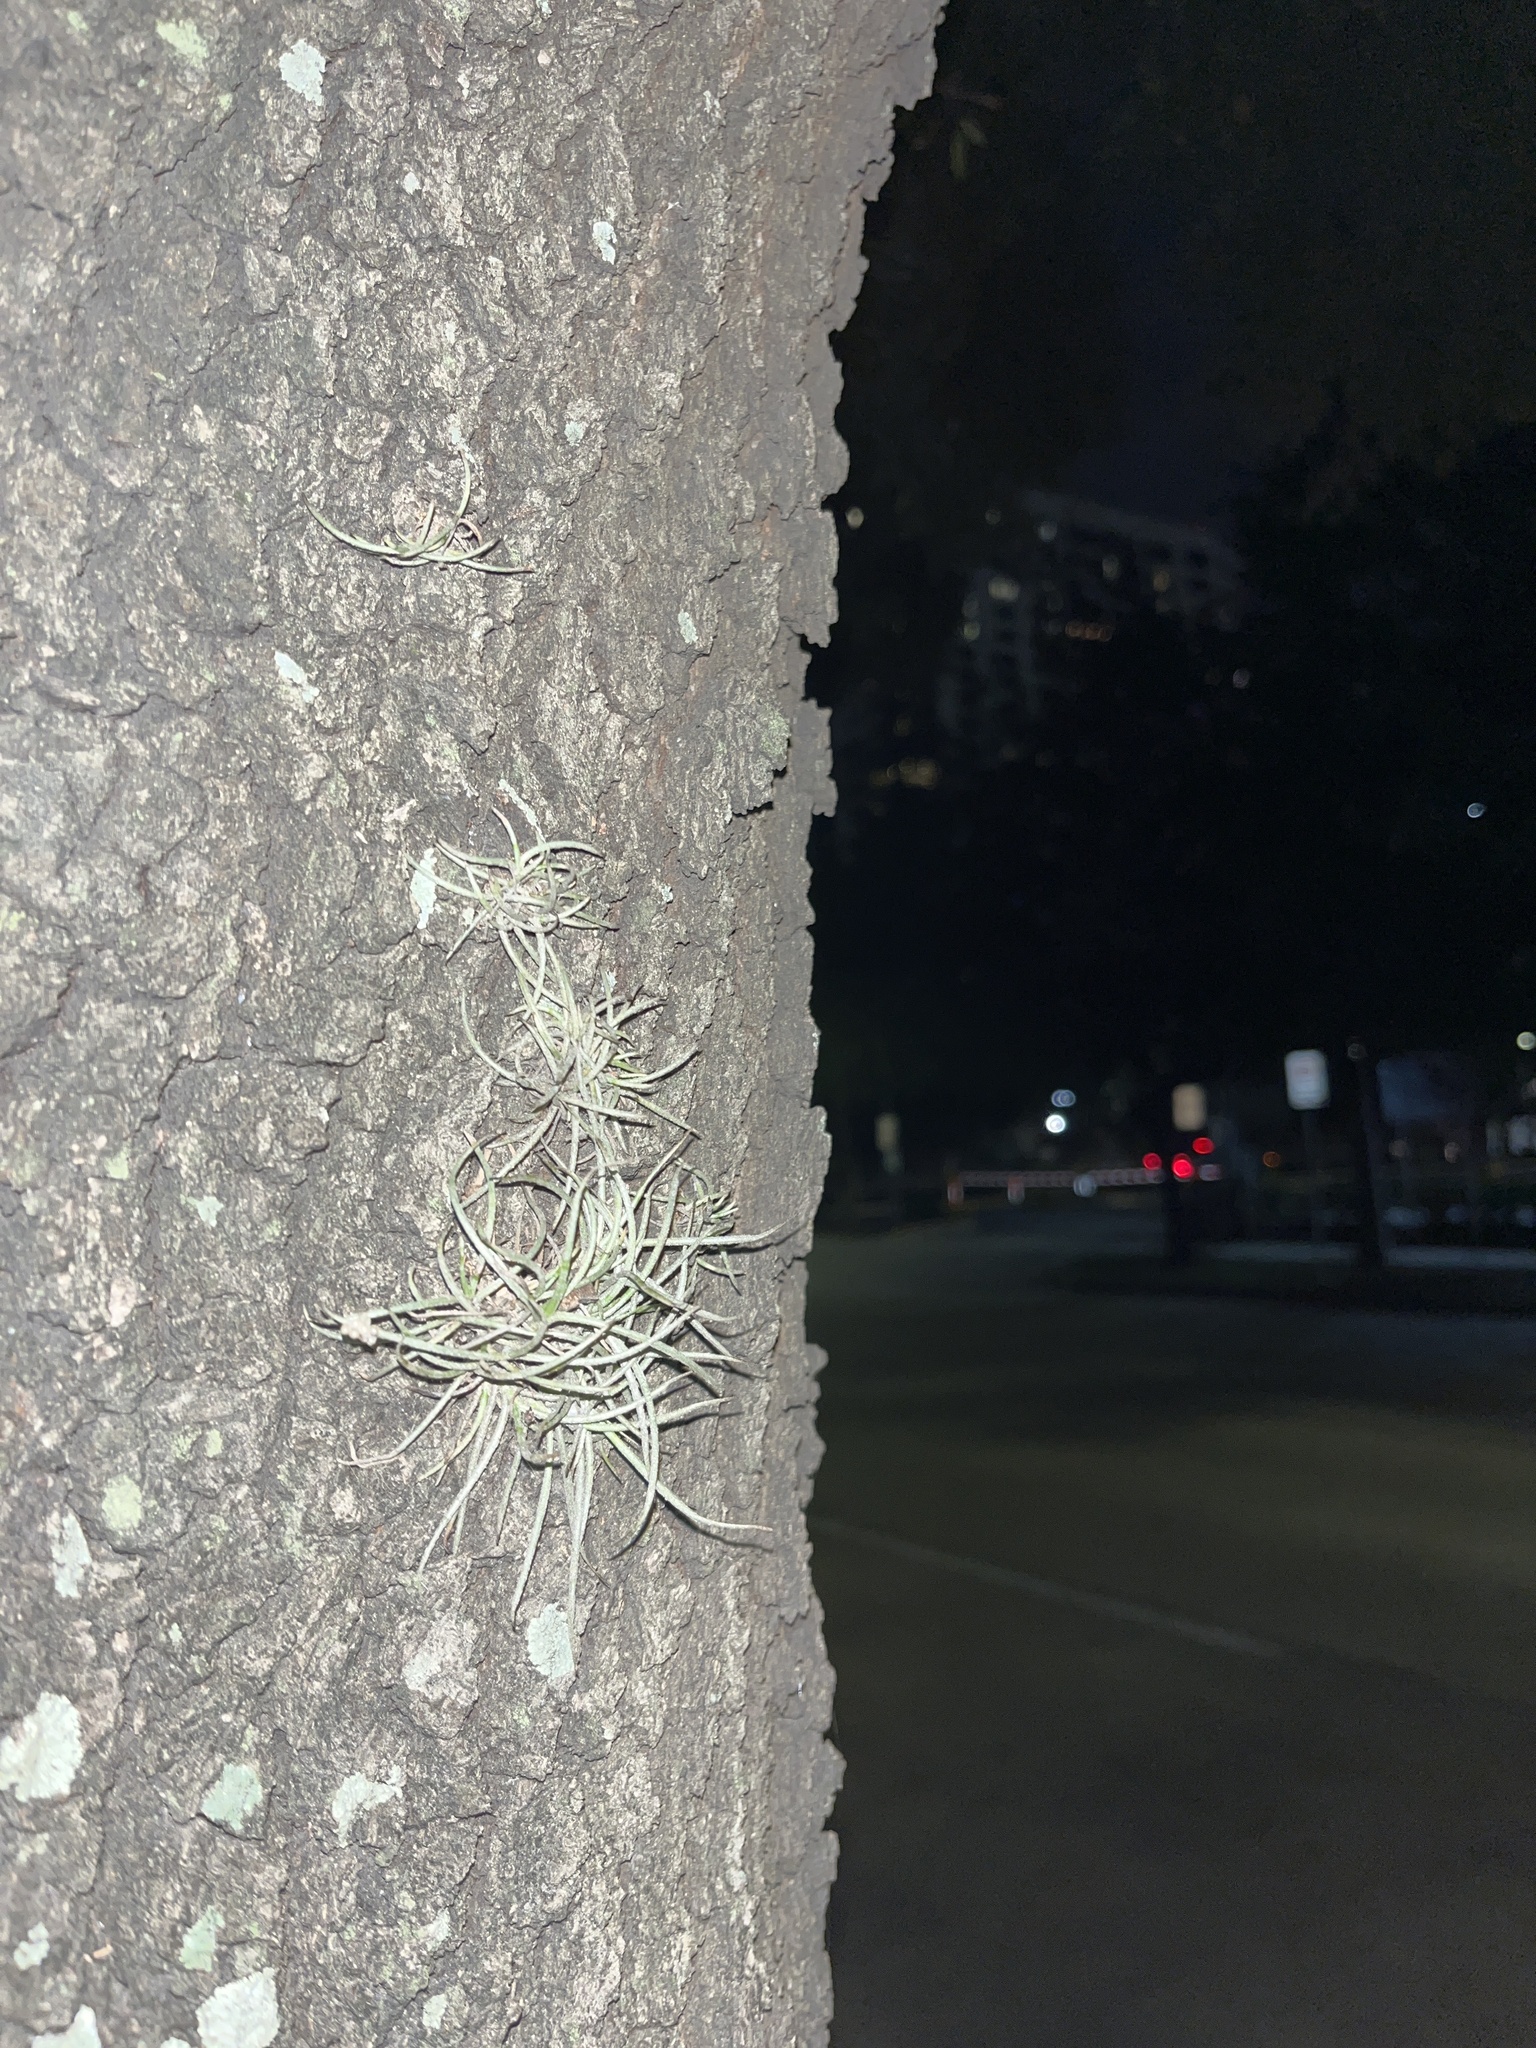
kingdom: Plantae
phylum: Tracheophyta
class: Liliopsida
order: Poales
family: Bromeliaceae
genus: Tillandsia
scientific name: Tillandsia recurvata
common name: Small ballmoss
